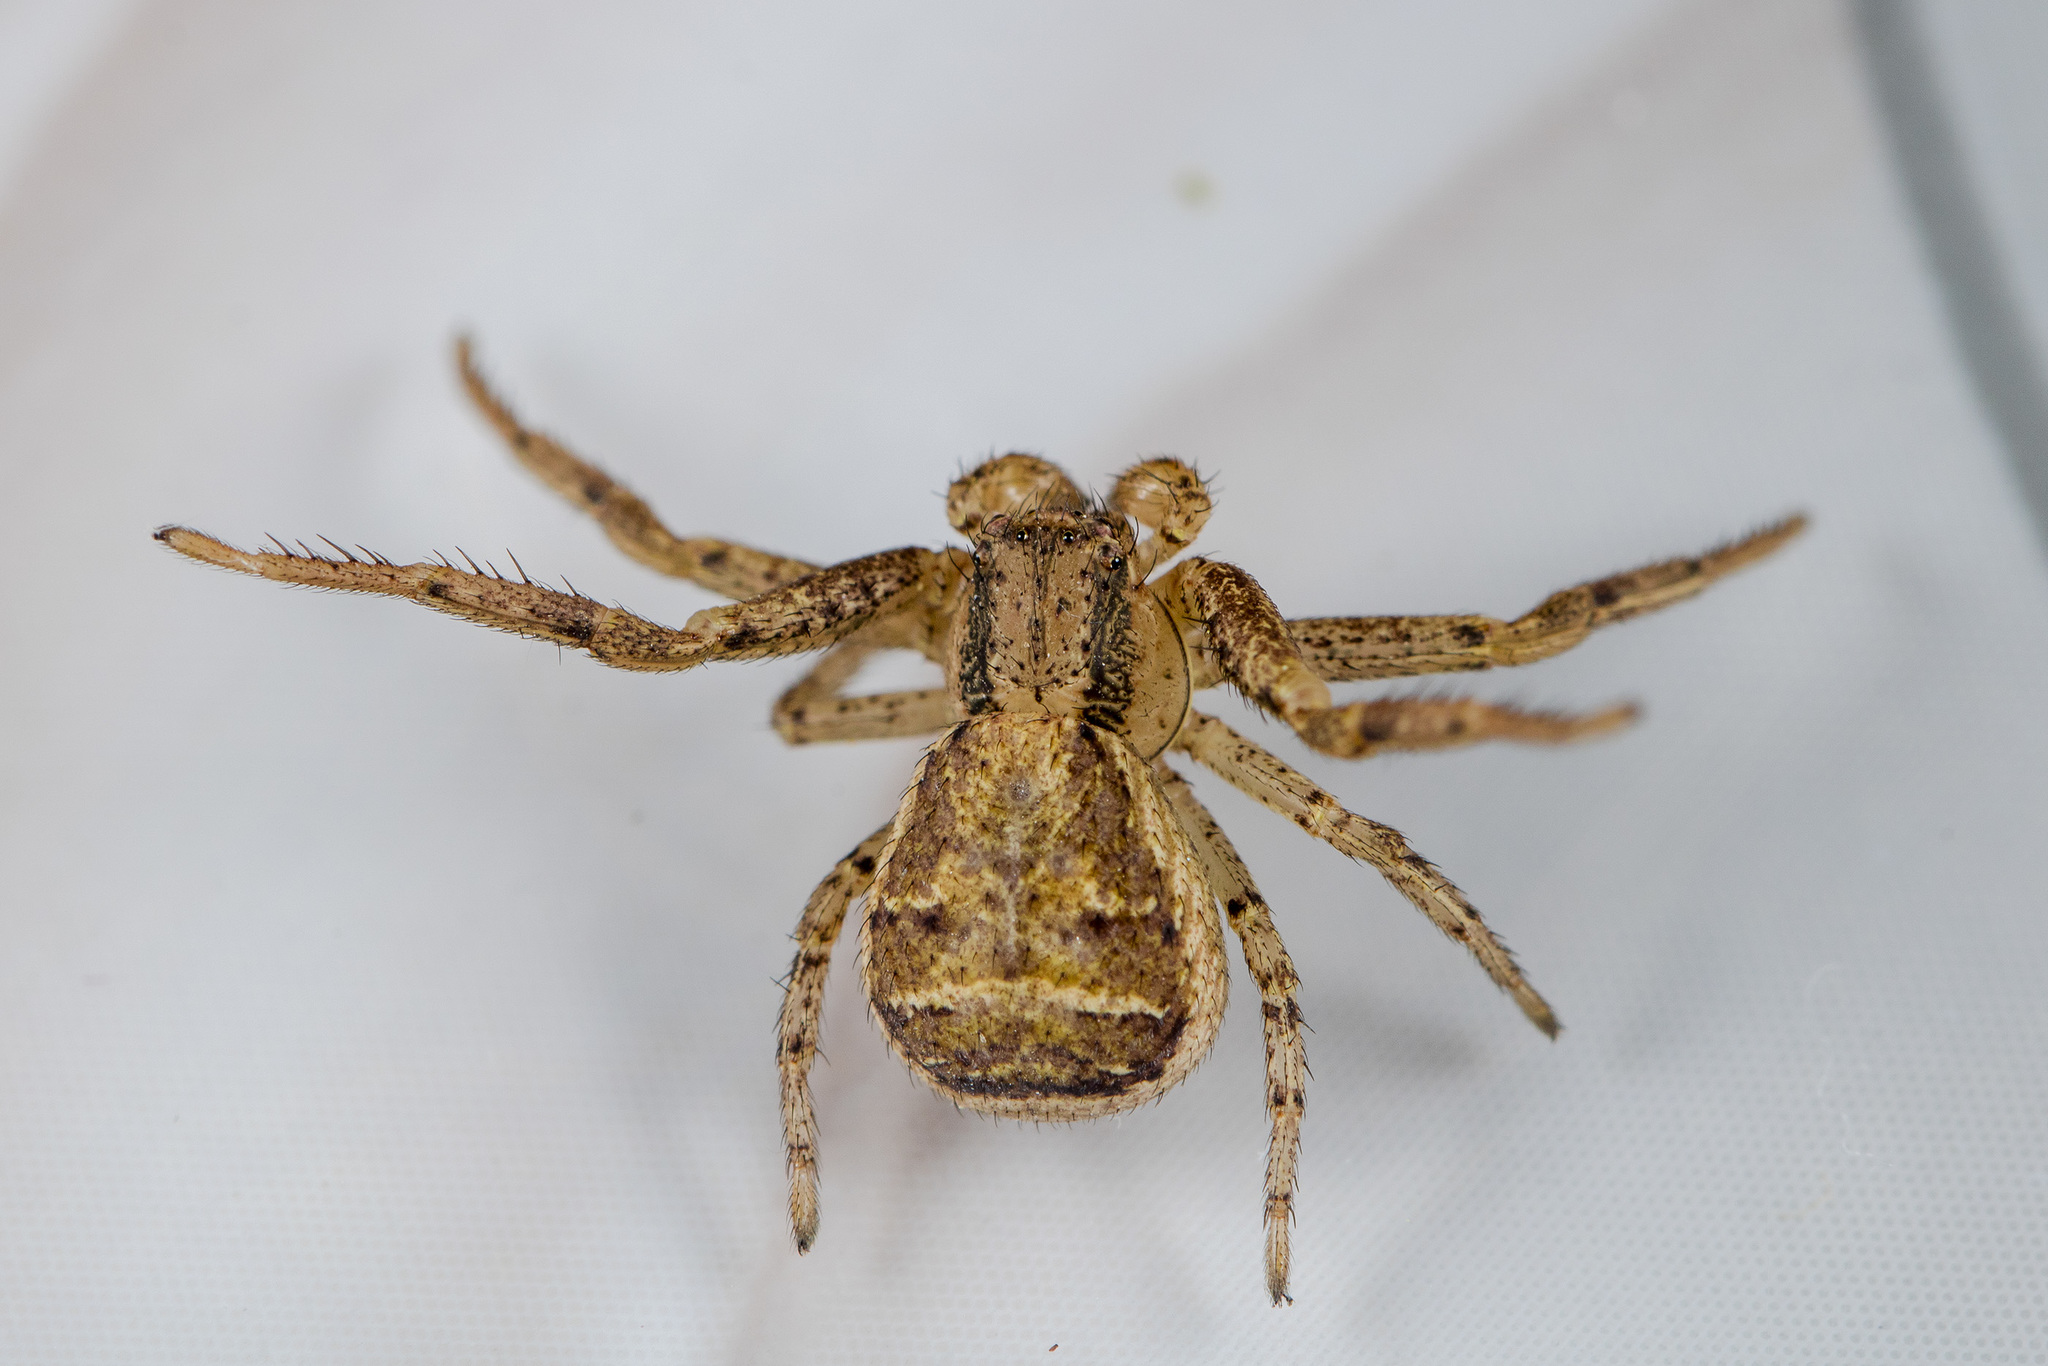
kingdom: Animalia
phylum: Arthropoda
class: Arachnida
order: Araneae
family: Thomisidae
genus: Xysticus
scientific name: Xysticus ephippiatus
